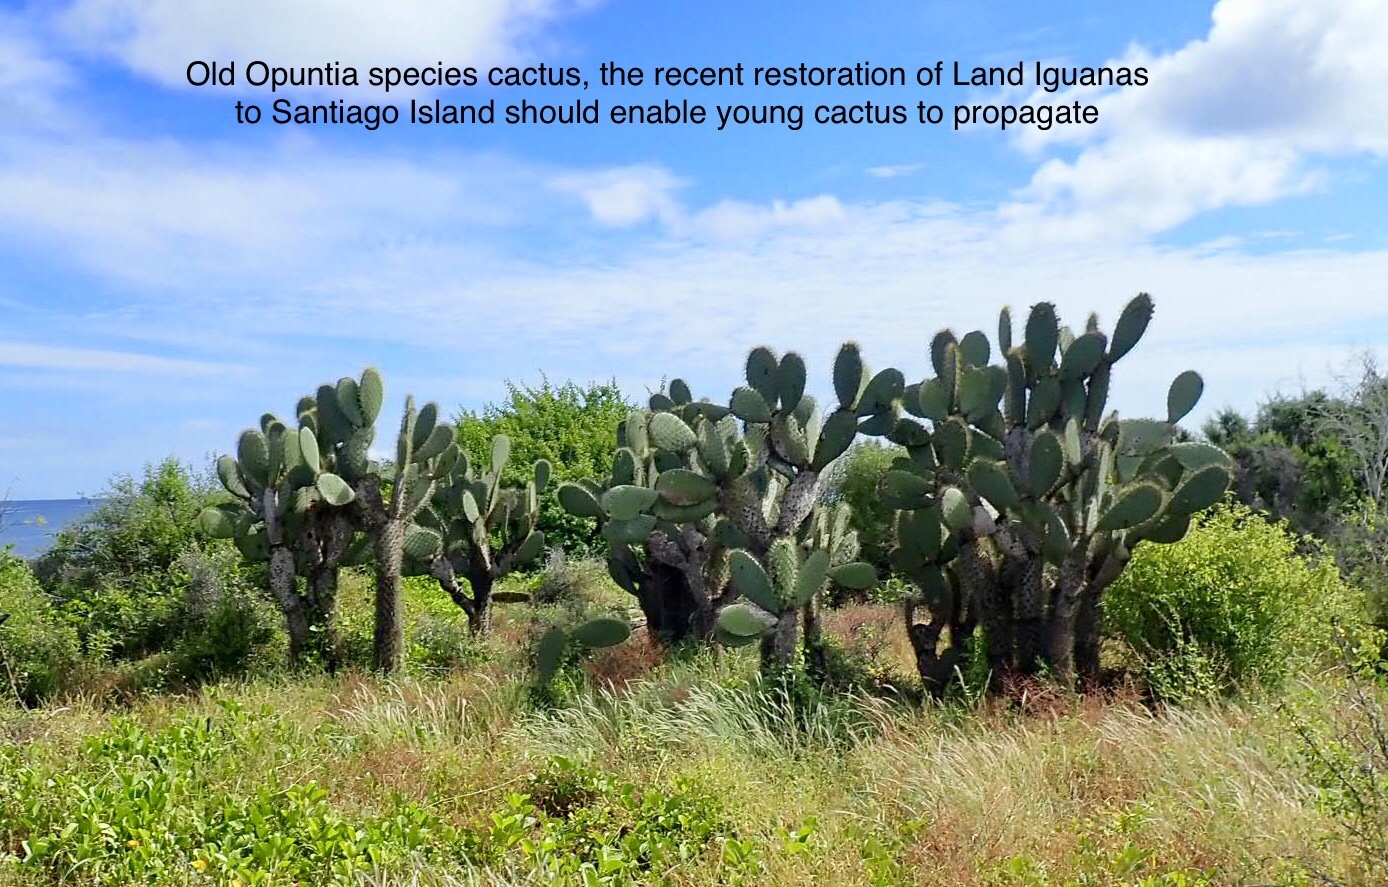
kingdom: Plantae
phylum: Tracheophyta
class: Magnoliopsida
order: Caryophyllales
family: Cactaceae
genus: Opuntia
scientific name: Opuntia galapageia
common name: Galápagos prickly pear
